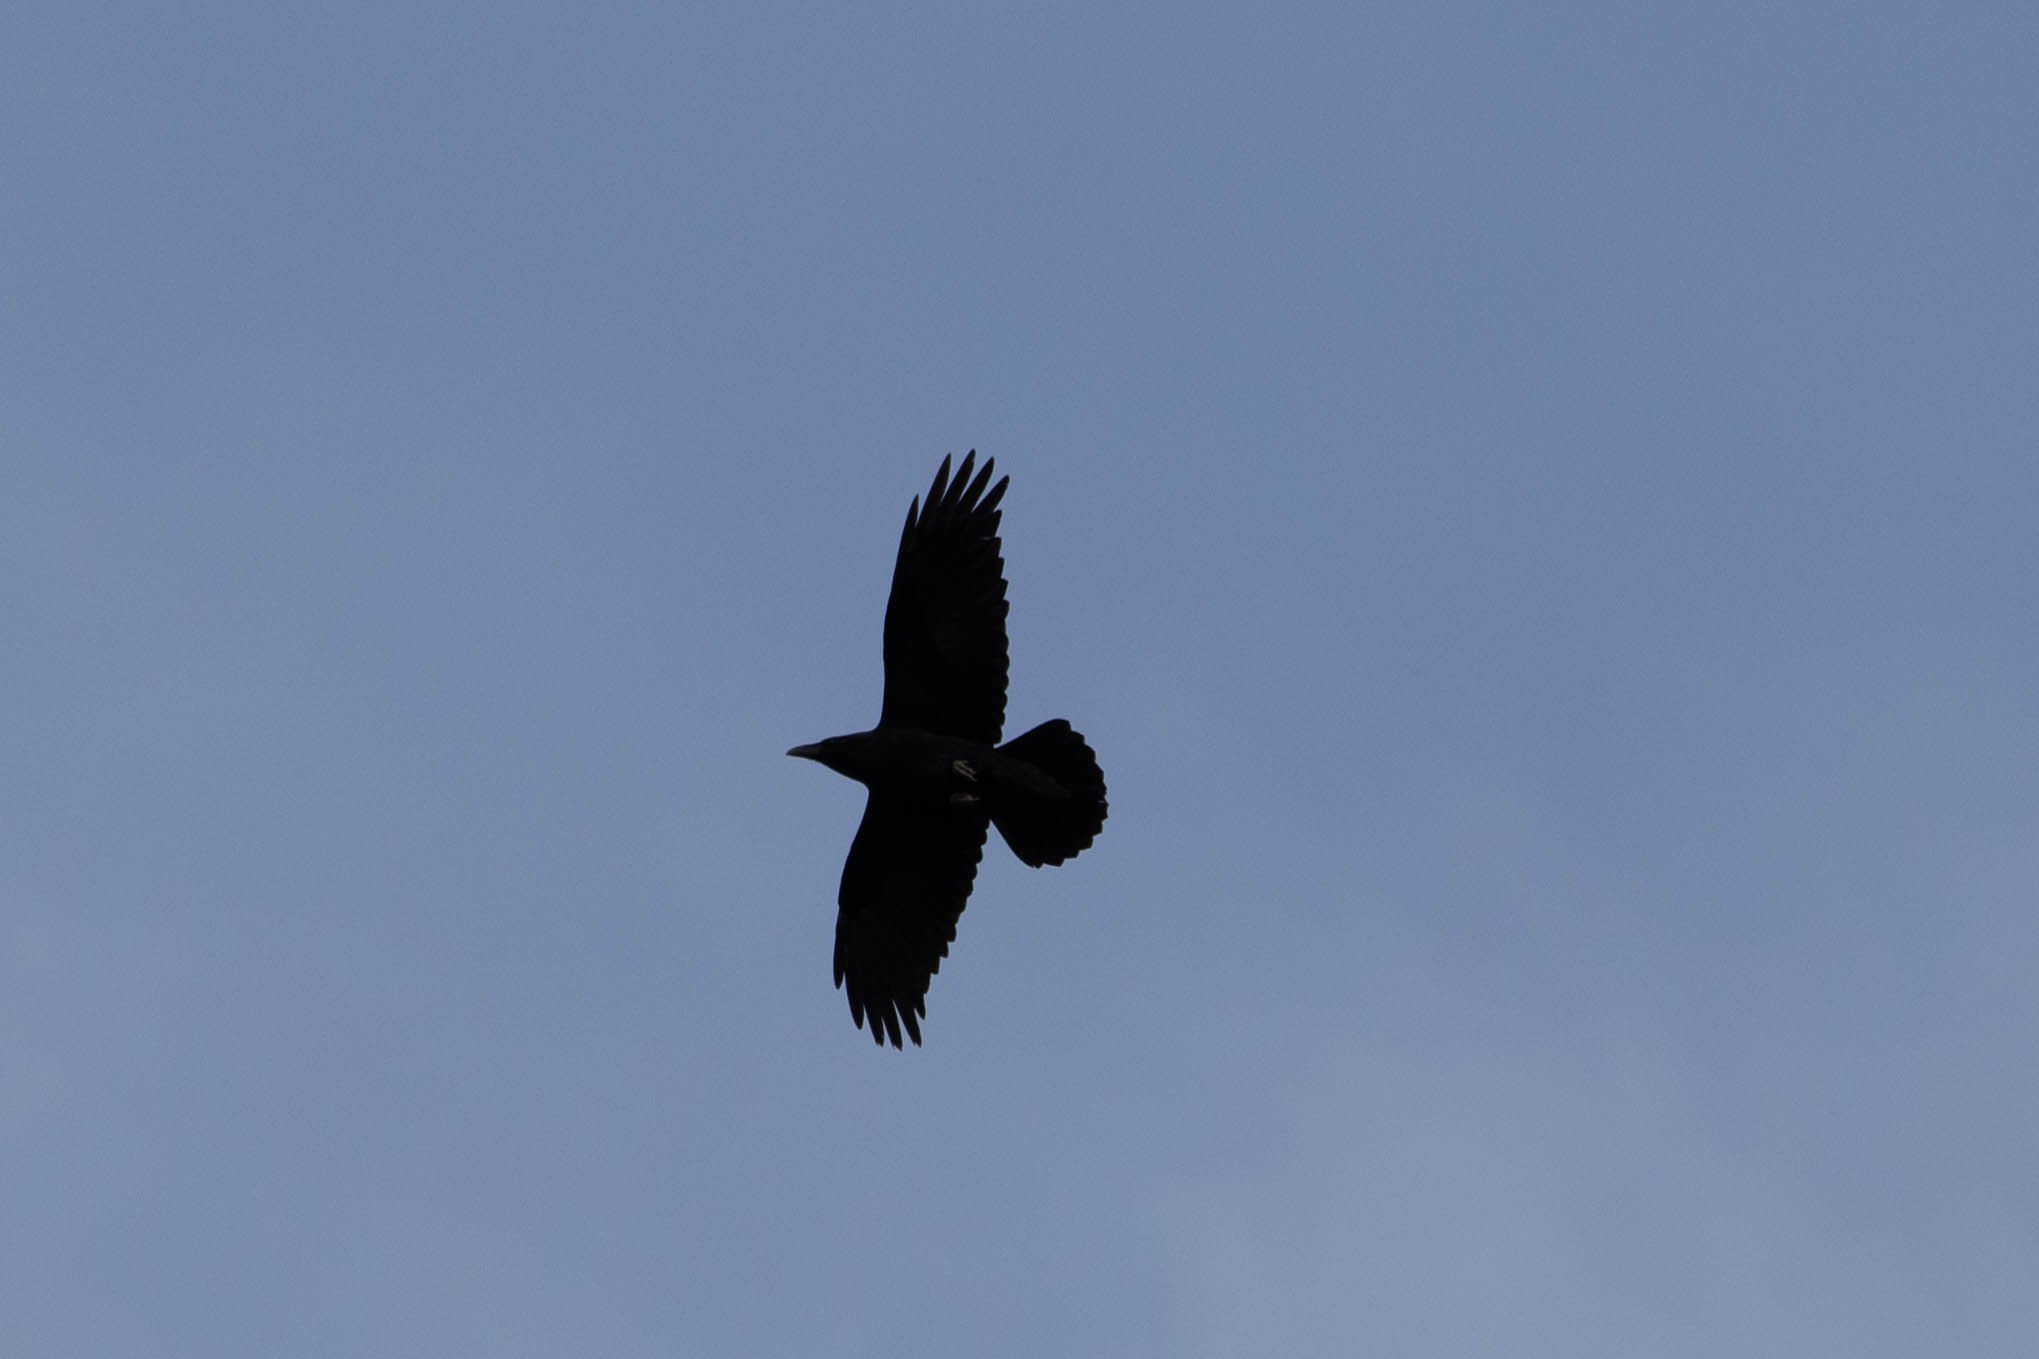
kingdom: Animalia
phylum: Chordata
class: Aves
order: Passeriformes
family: Corvidae
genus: Corvus
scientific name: Corvus corax
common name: Common raven
